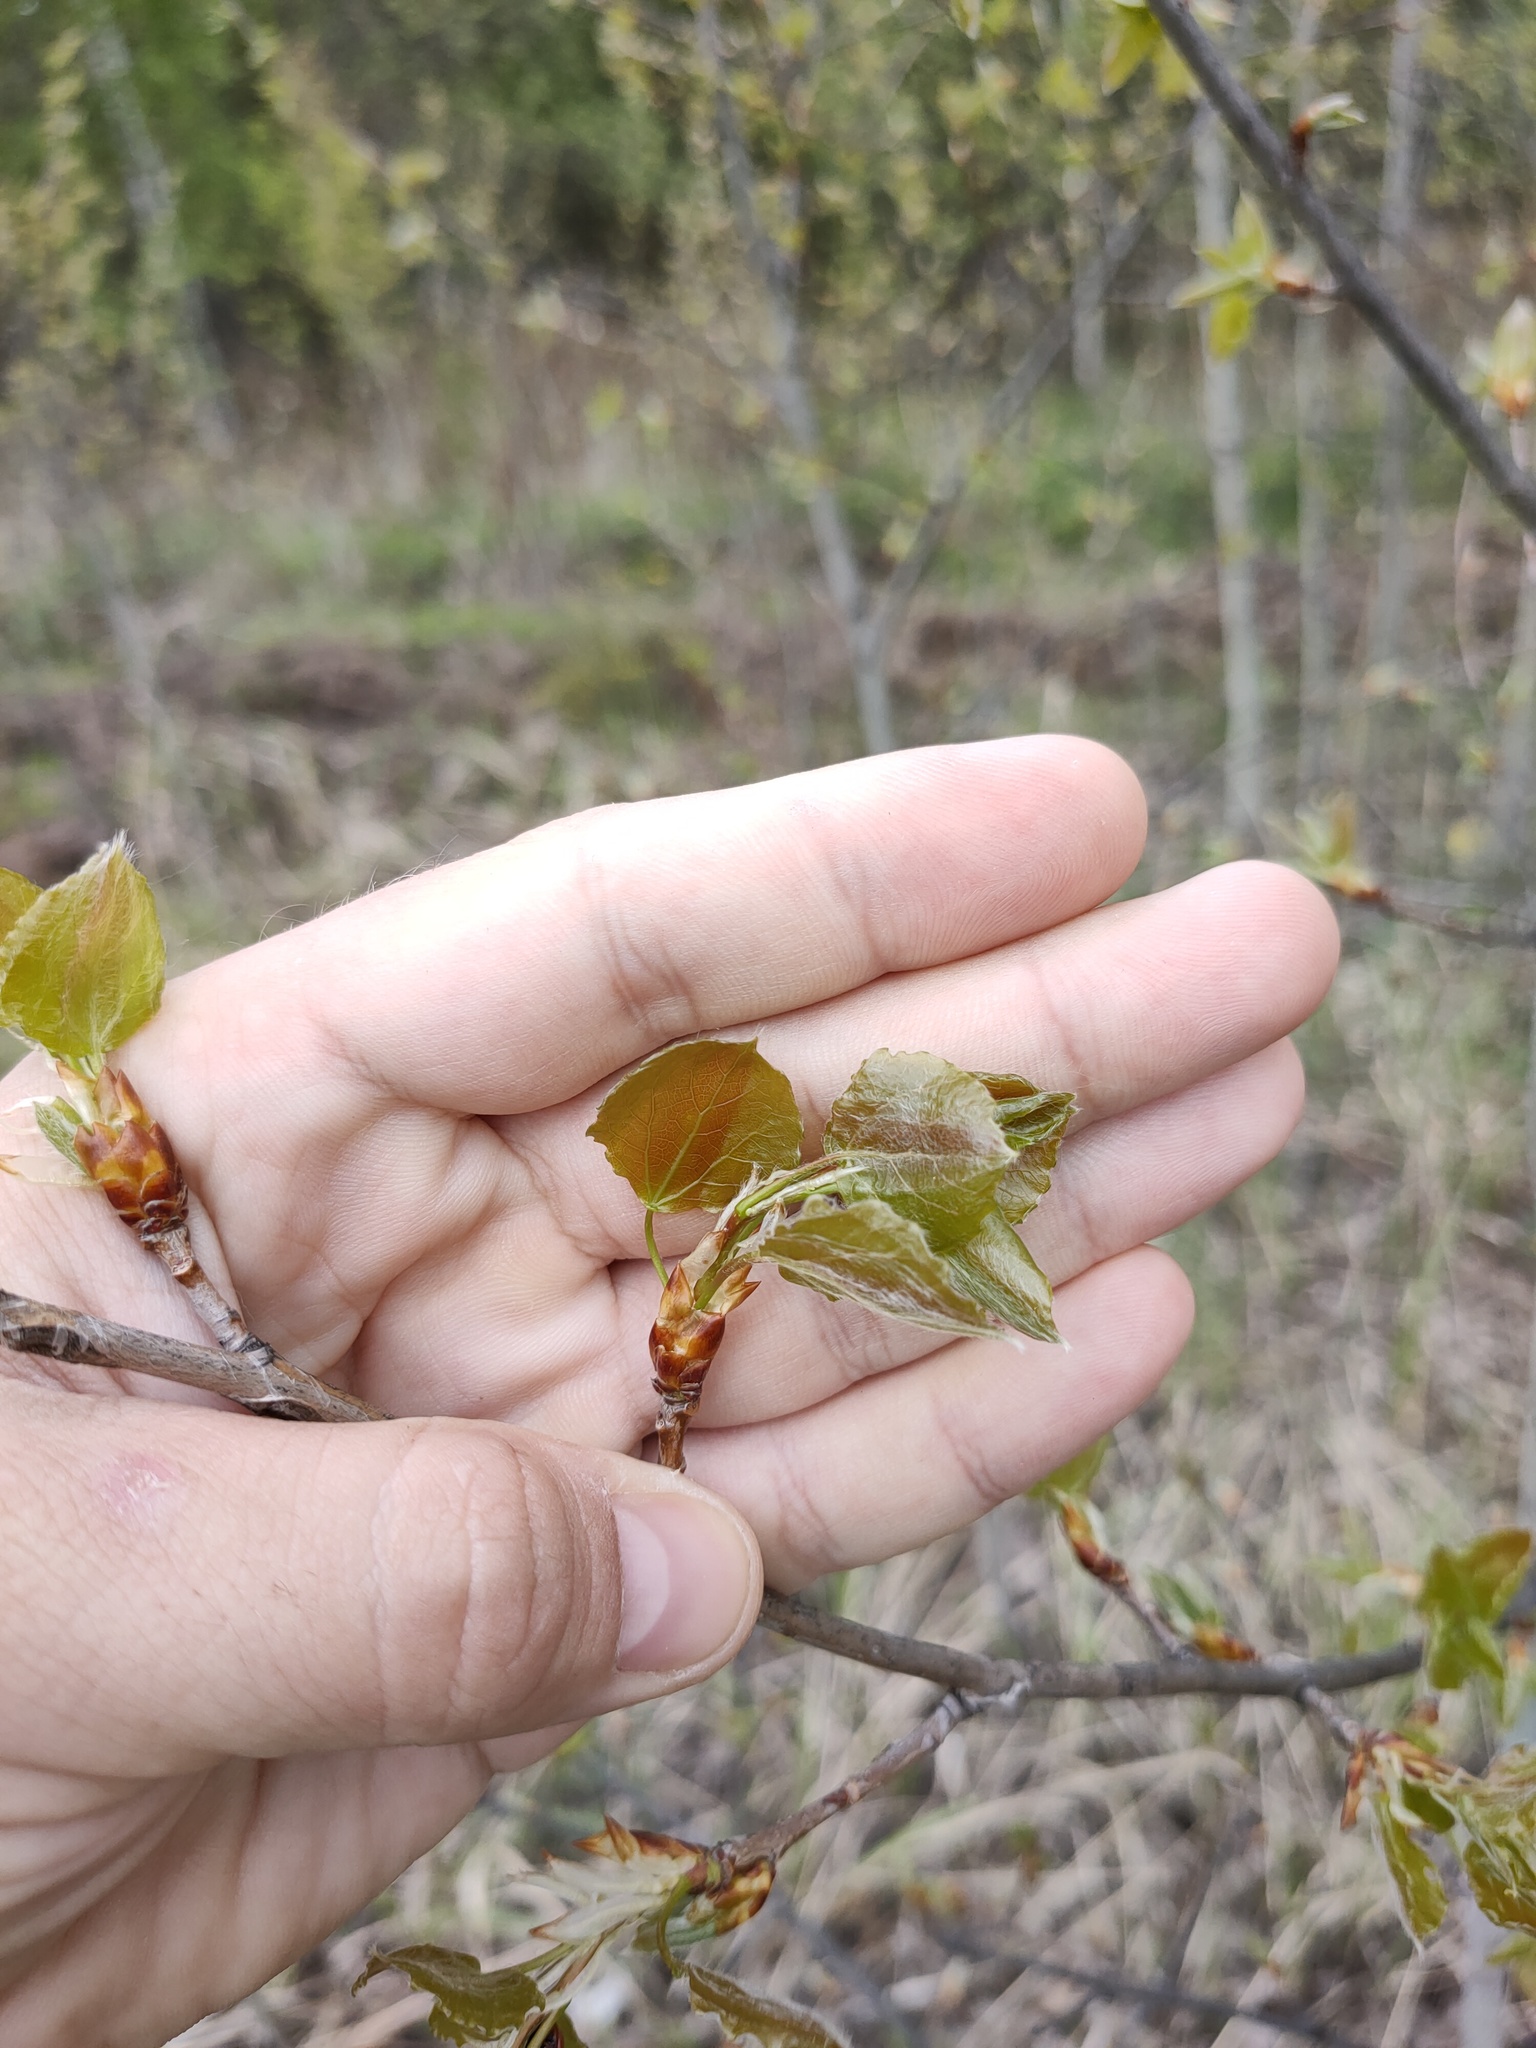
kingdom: Plantae
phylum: Tracheophyta
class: Magnoliopsida
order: Malpighiales
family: Salicaceae
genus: Populus
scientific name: Populus tremula
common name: European aspen
